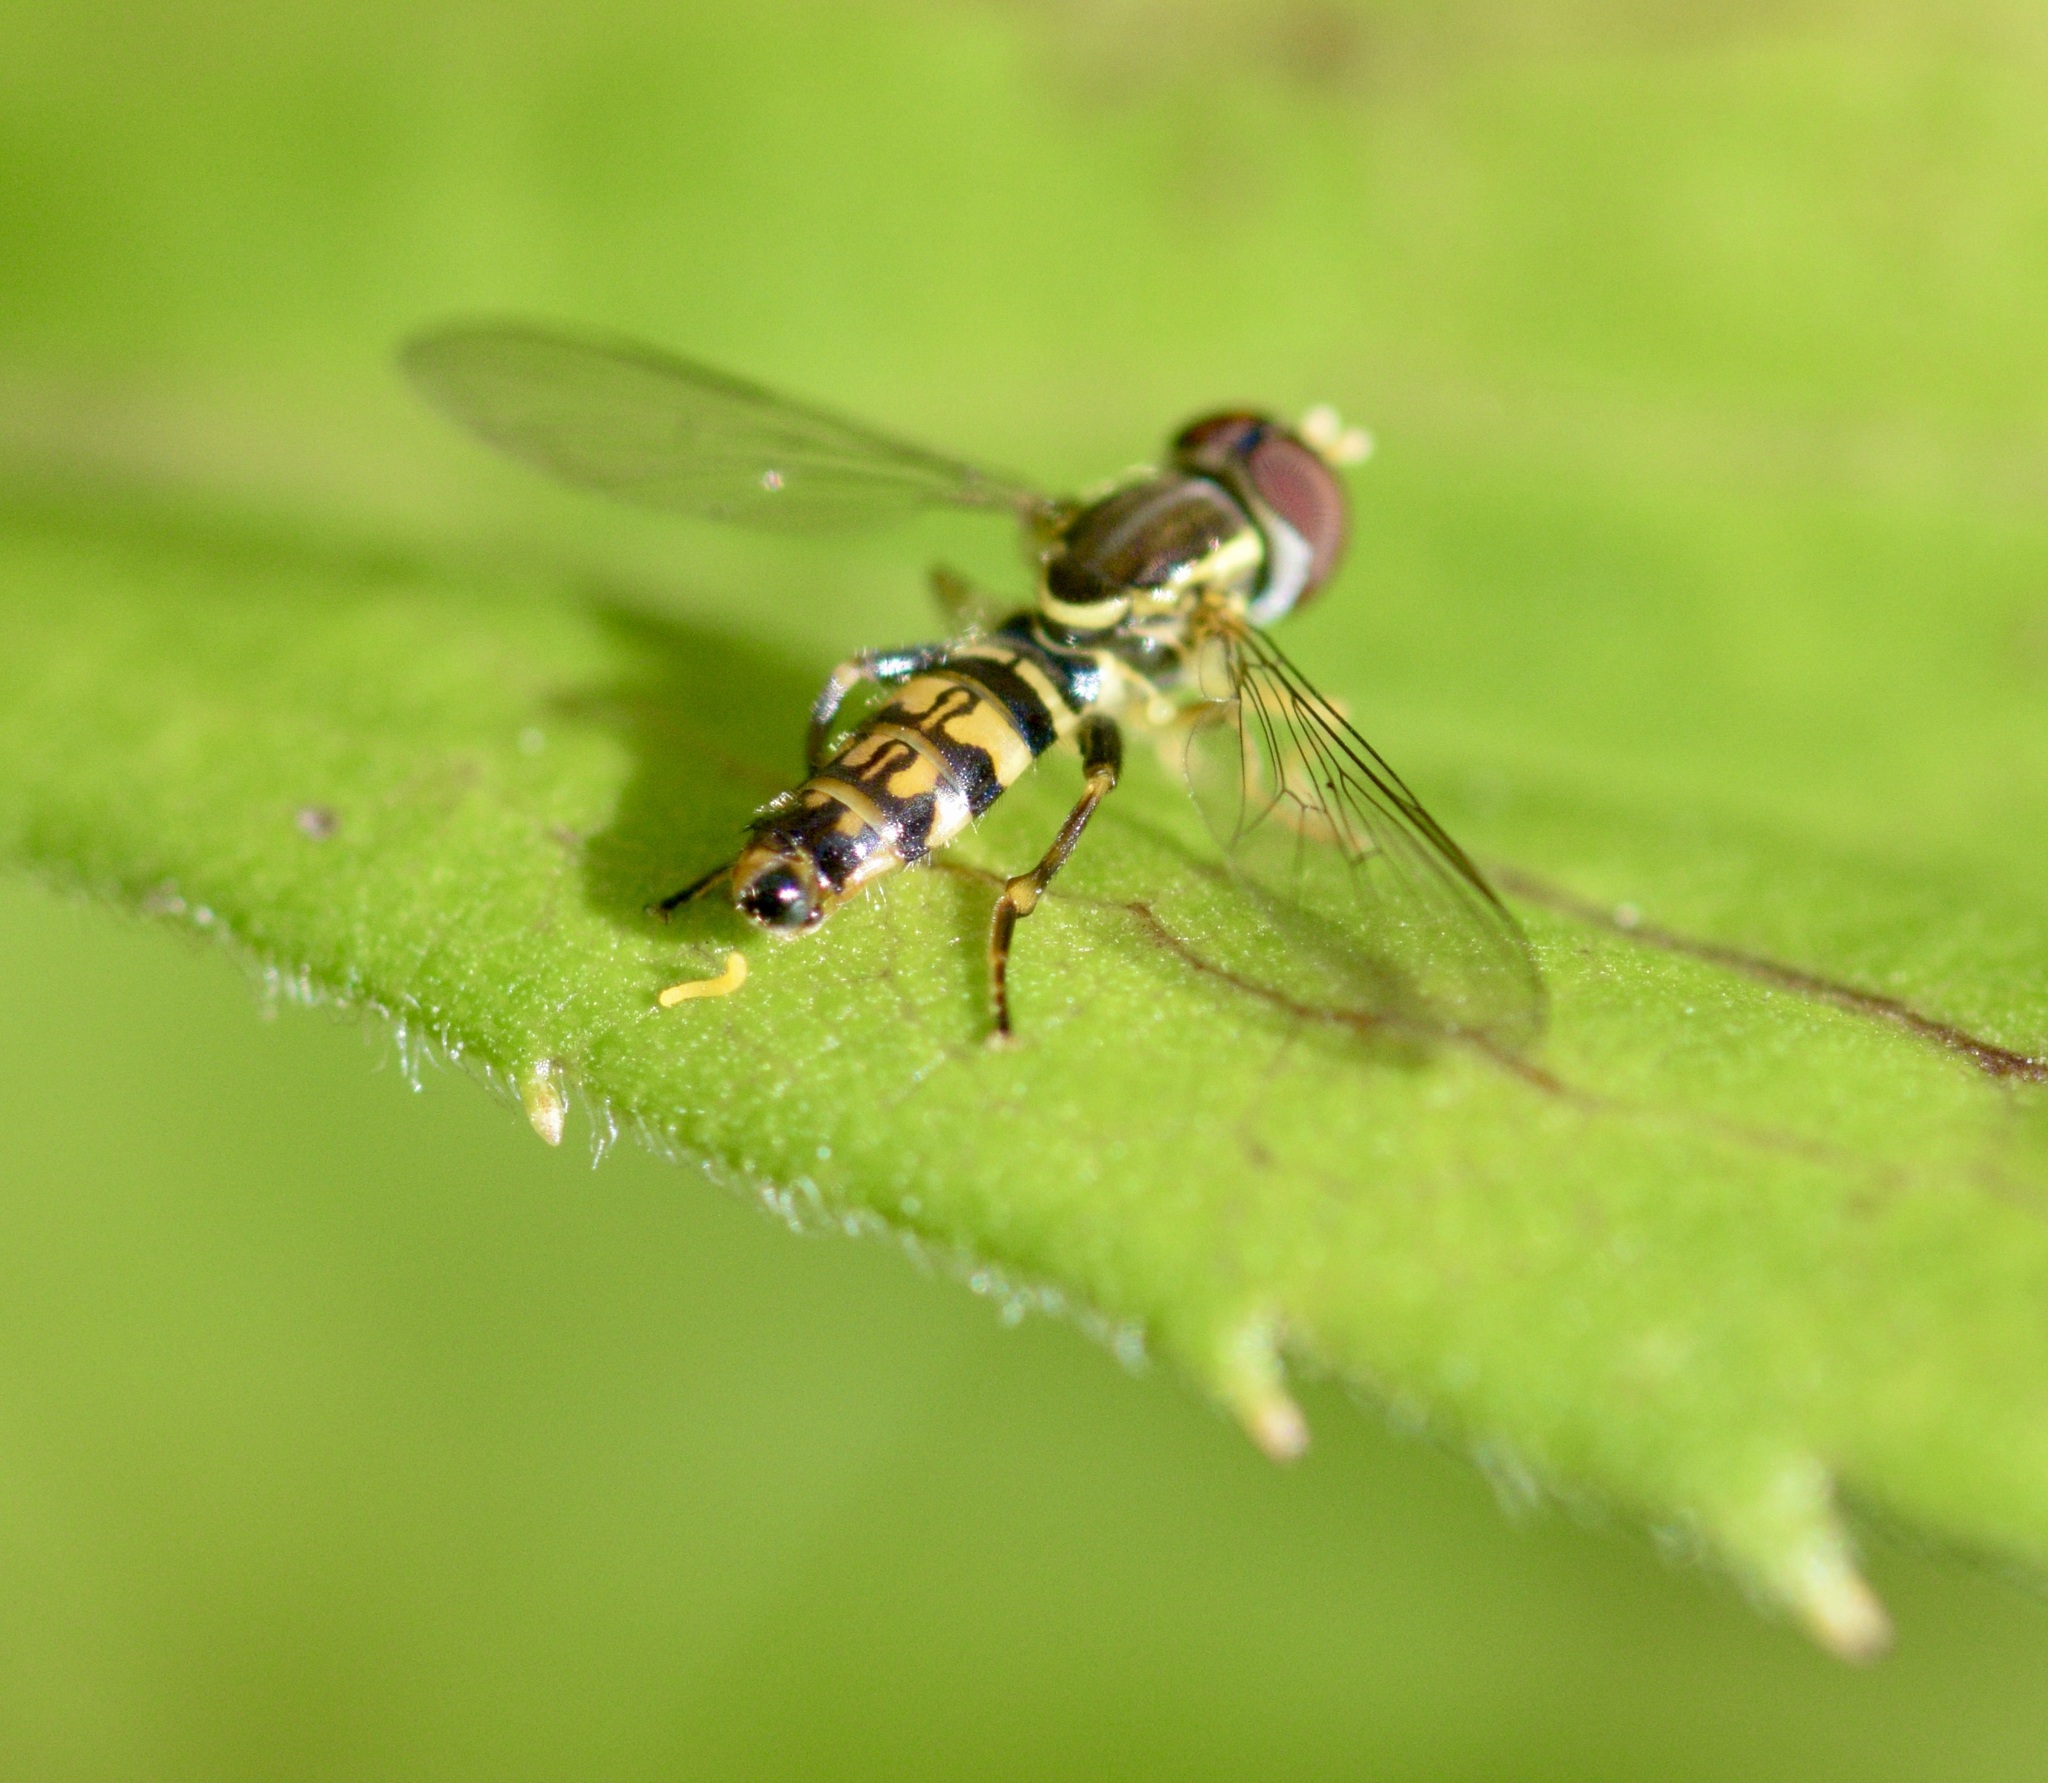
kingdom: Animalia
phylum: Arthropoda
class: Insecta
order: Diptera
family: Syrphidae
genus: Toxomerus
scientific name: Toxomerus geminatus
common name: Eastern calligrapher
